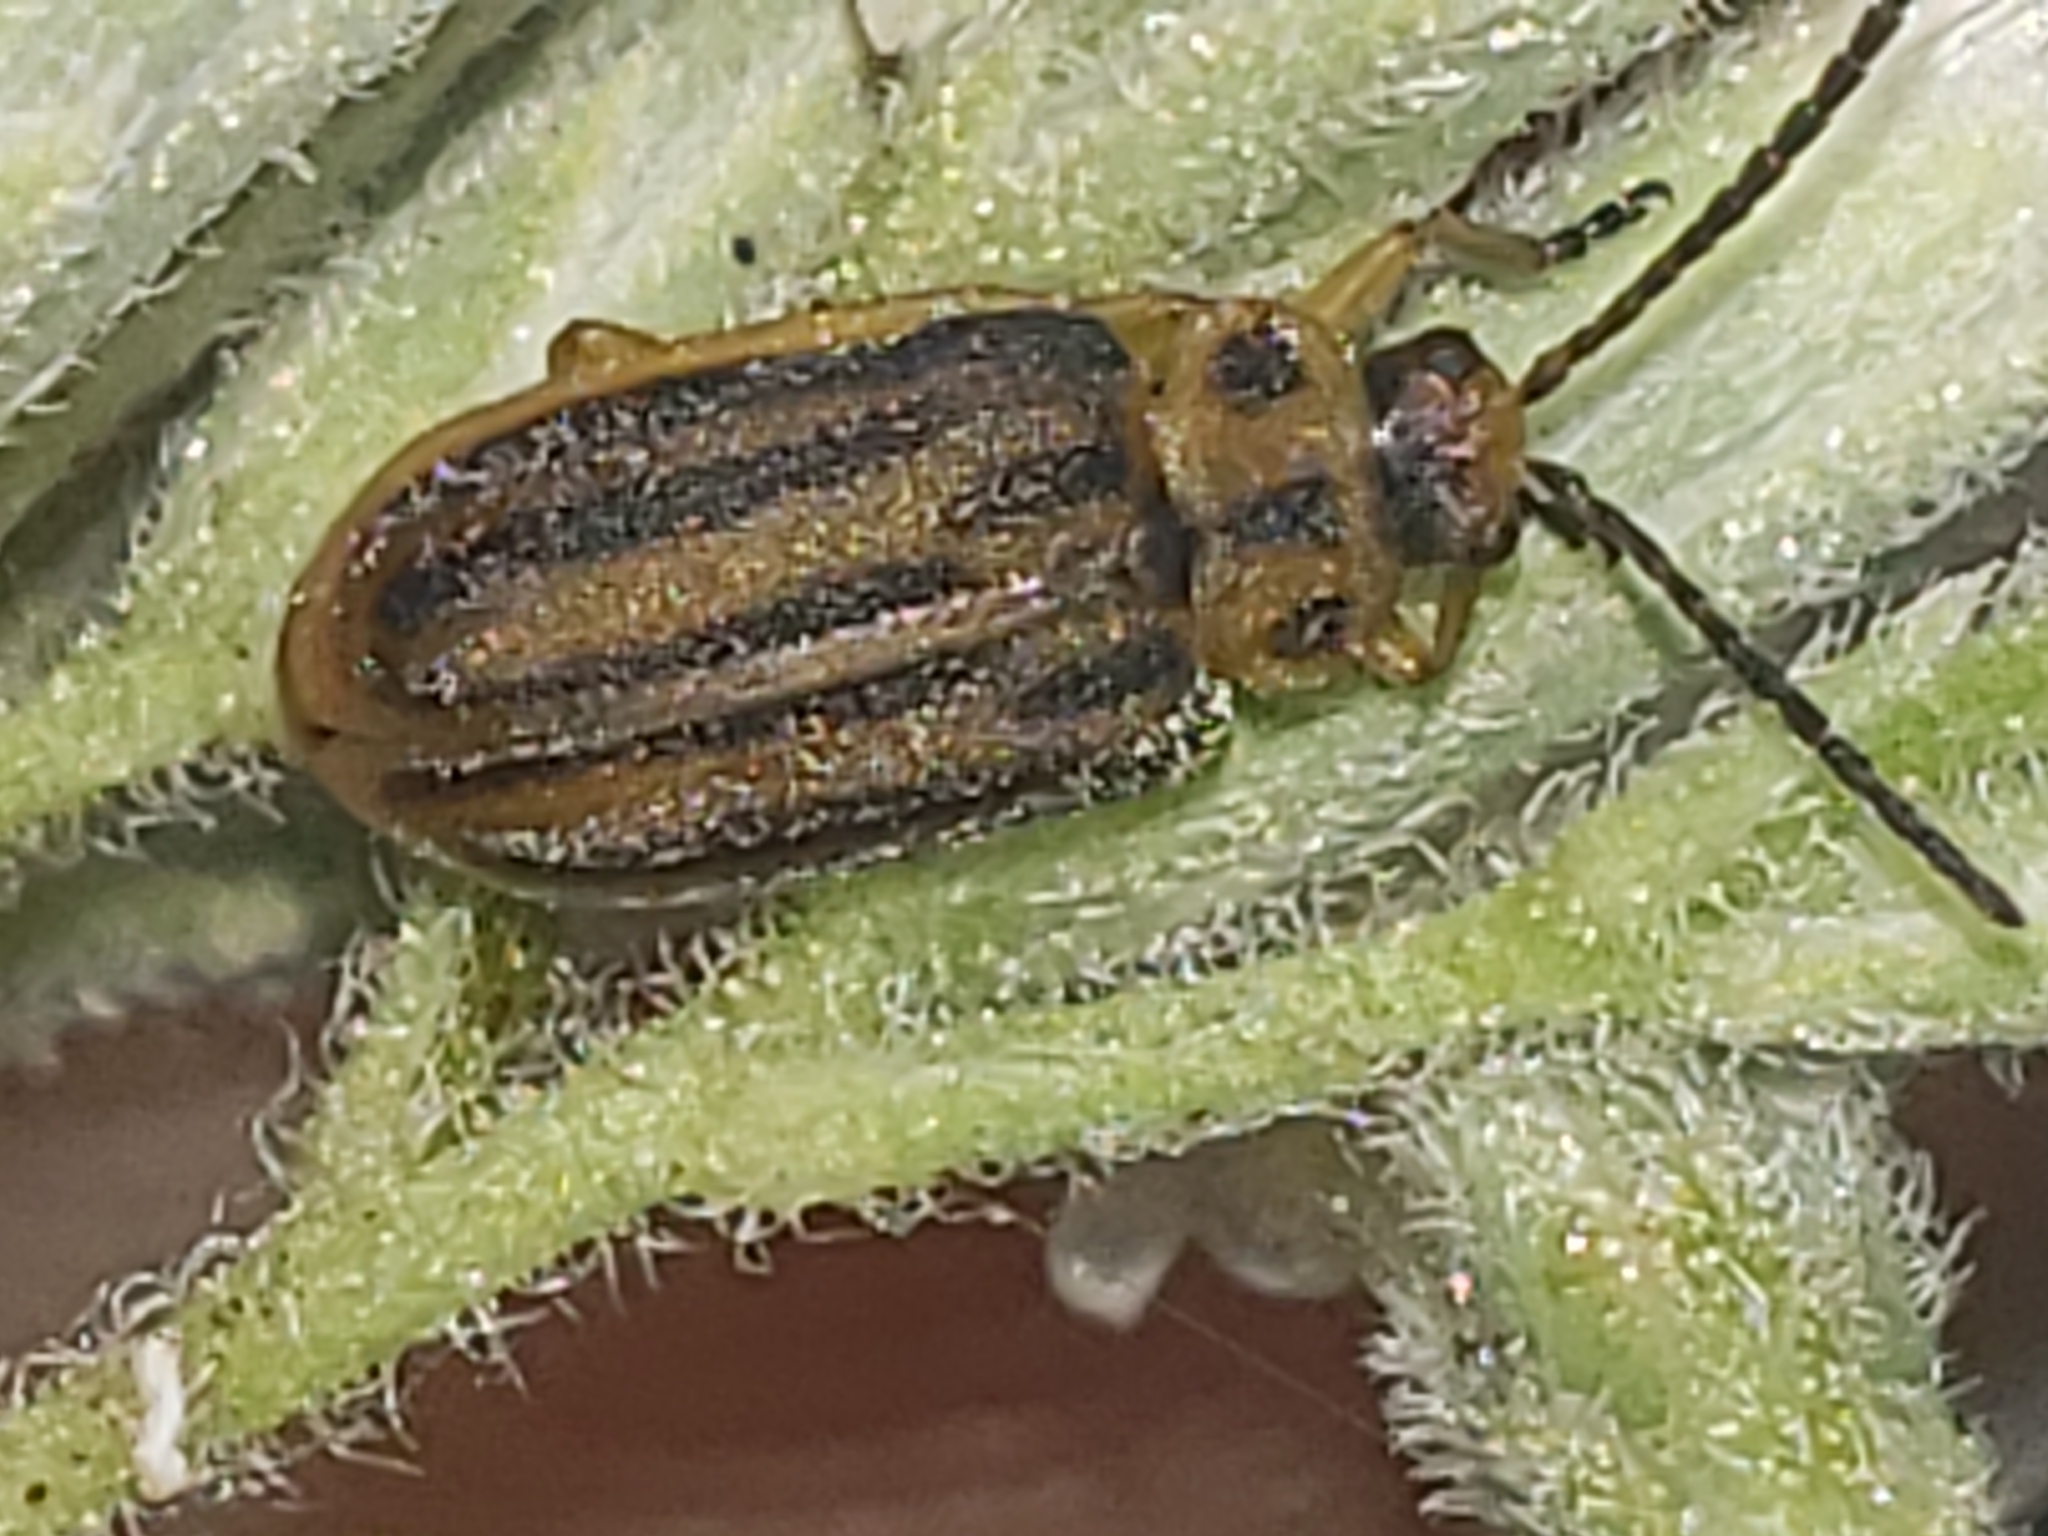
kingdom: Animalia
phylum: Arthropoda
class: Insecta
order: Coleoptera
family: Chrysomelidae
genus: Ophraella
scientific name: Ophraella notata
